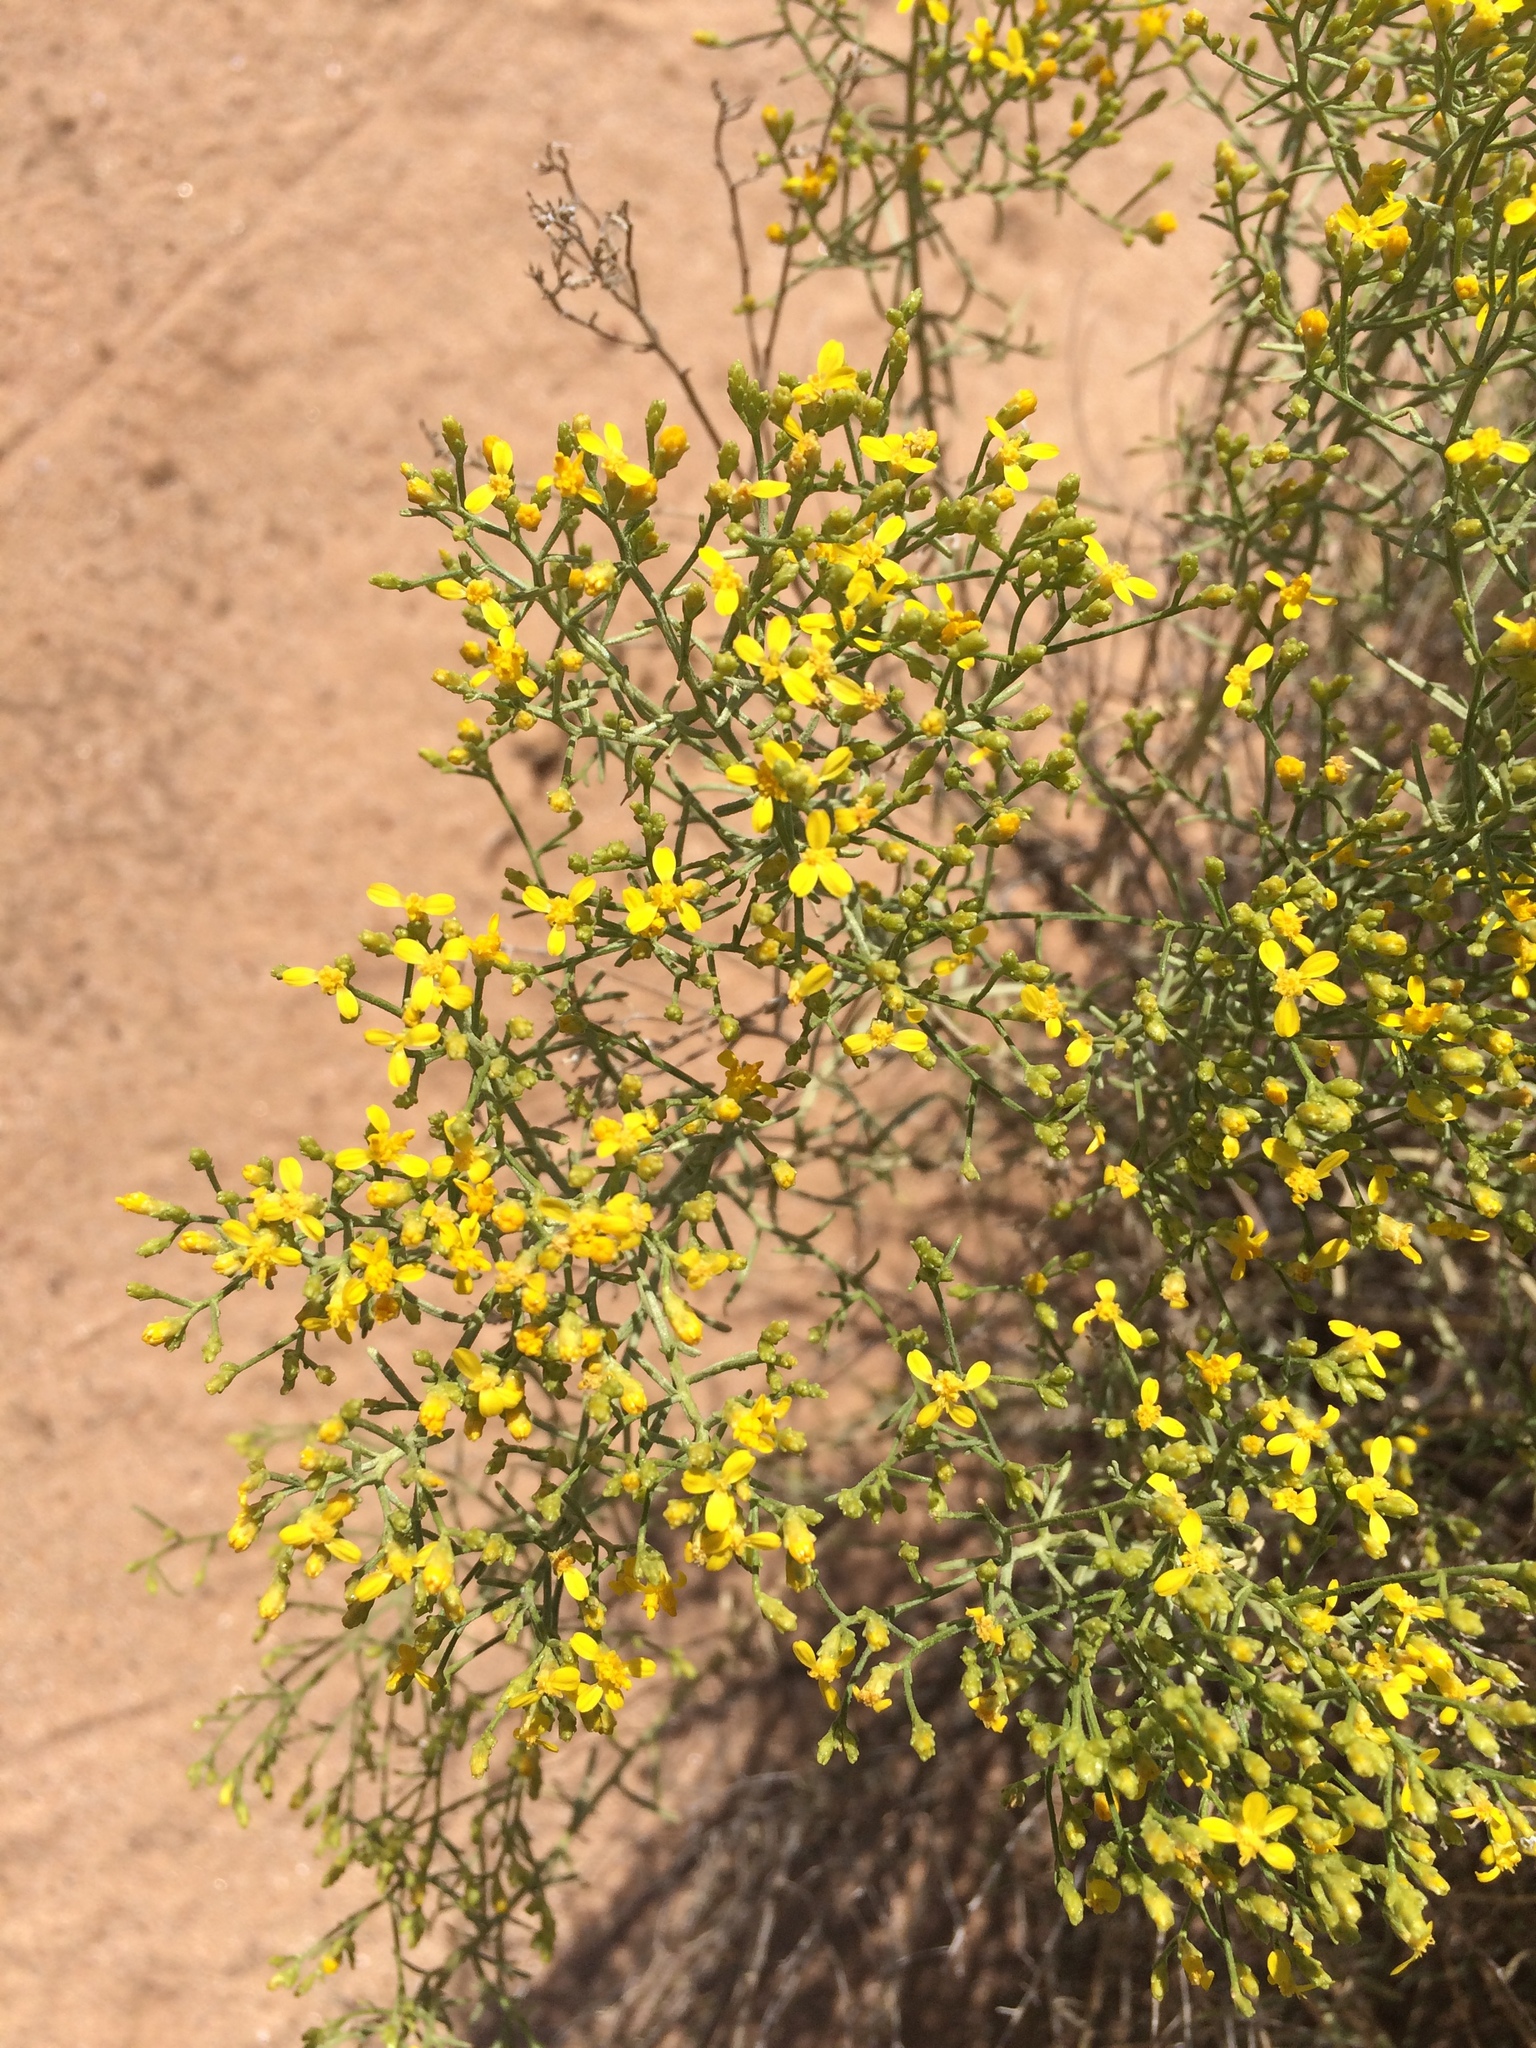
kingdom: Plantae
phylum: Tracheophyta
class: Magnoliopsida
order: Asterales
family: Asteraceae
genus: Gutierrezia
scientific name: Gutierrezia sarothrae
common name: Broom snakeweed
